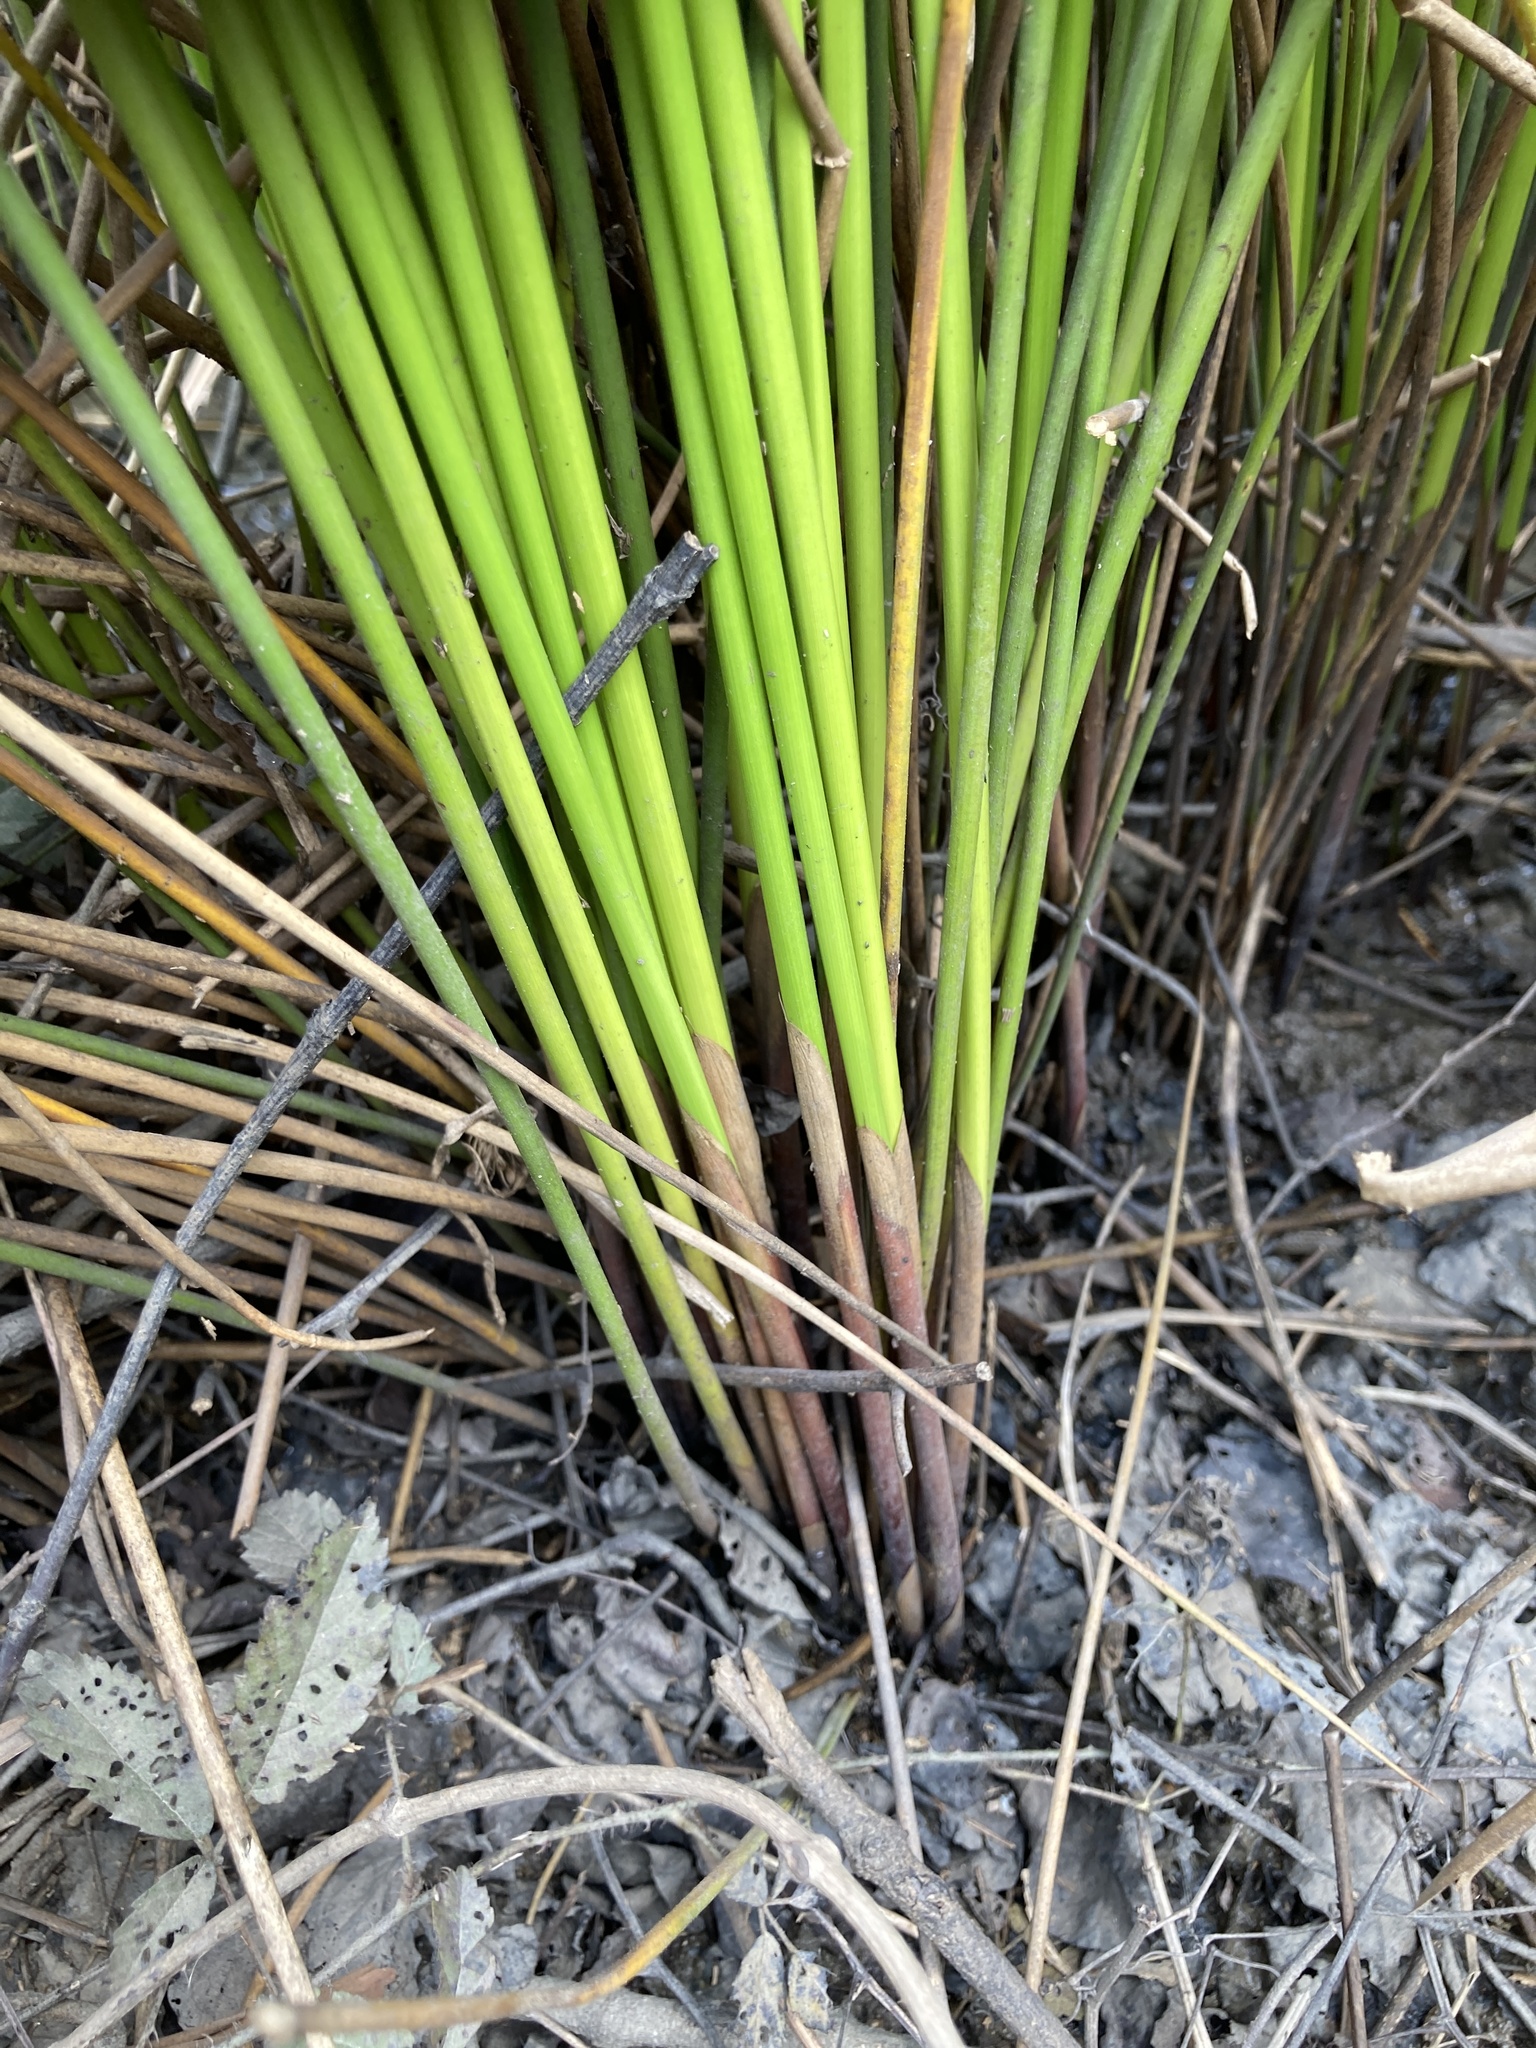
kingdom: Plantae
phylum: Tracheophyta
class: Liliopsida
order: Poales
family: Juncaceae
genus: Juncus
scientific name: Juncus effusus
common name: Soft rush
